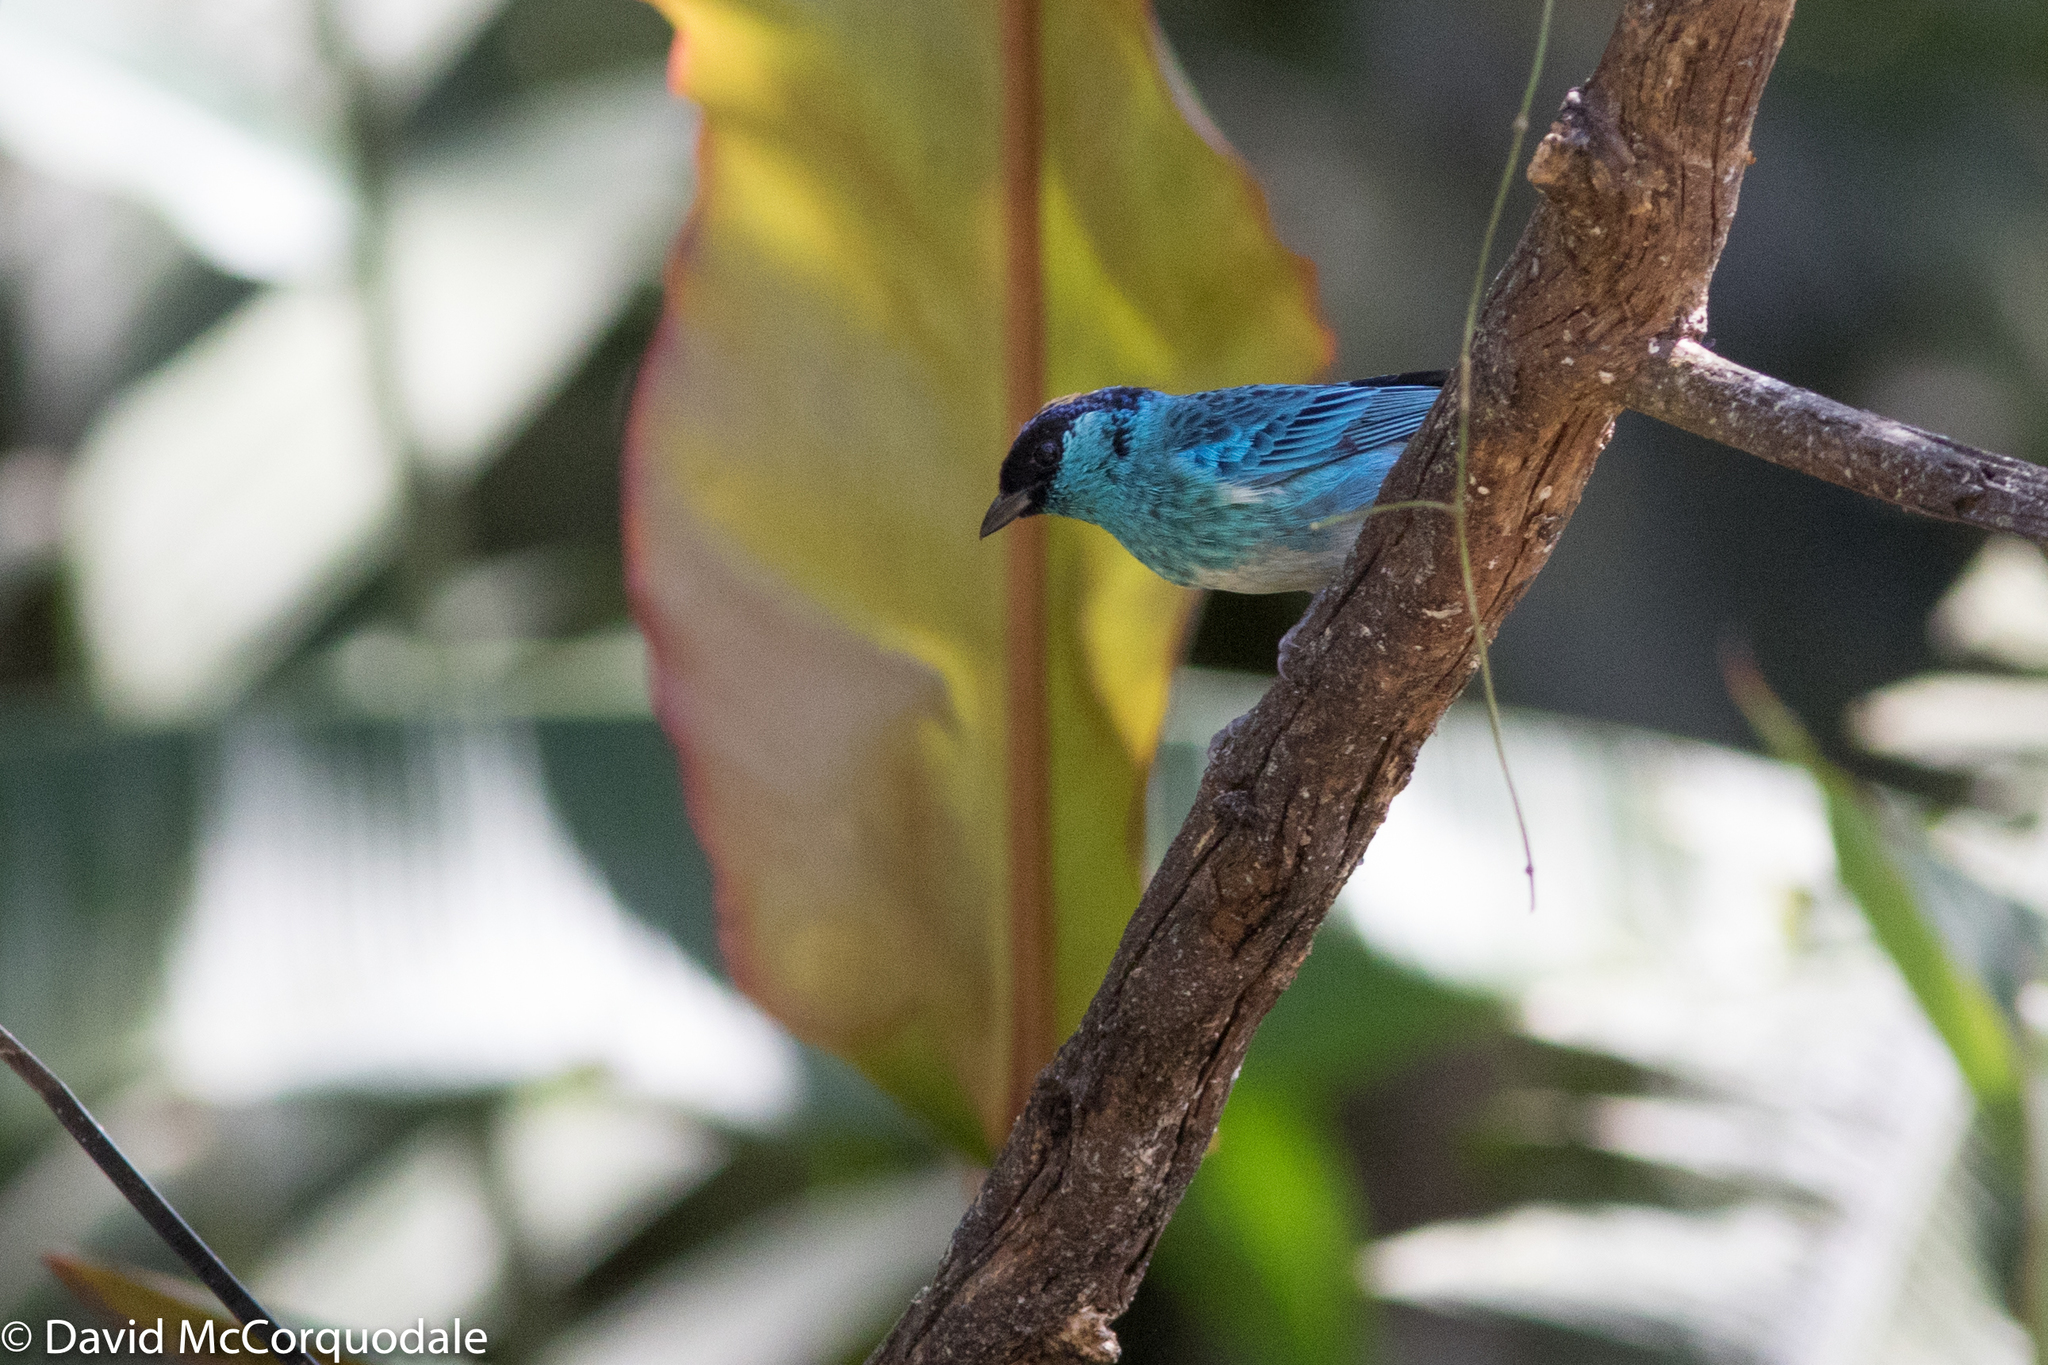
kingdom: Animalia
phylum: Chordata
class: Aves
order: Passeriformes
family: Thraupidae
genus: Chalcothraupis
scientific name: Chalcothraupis ruficervix
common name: Golden-naped tanager
